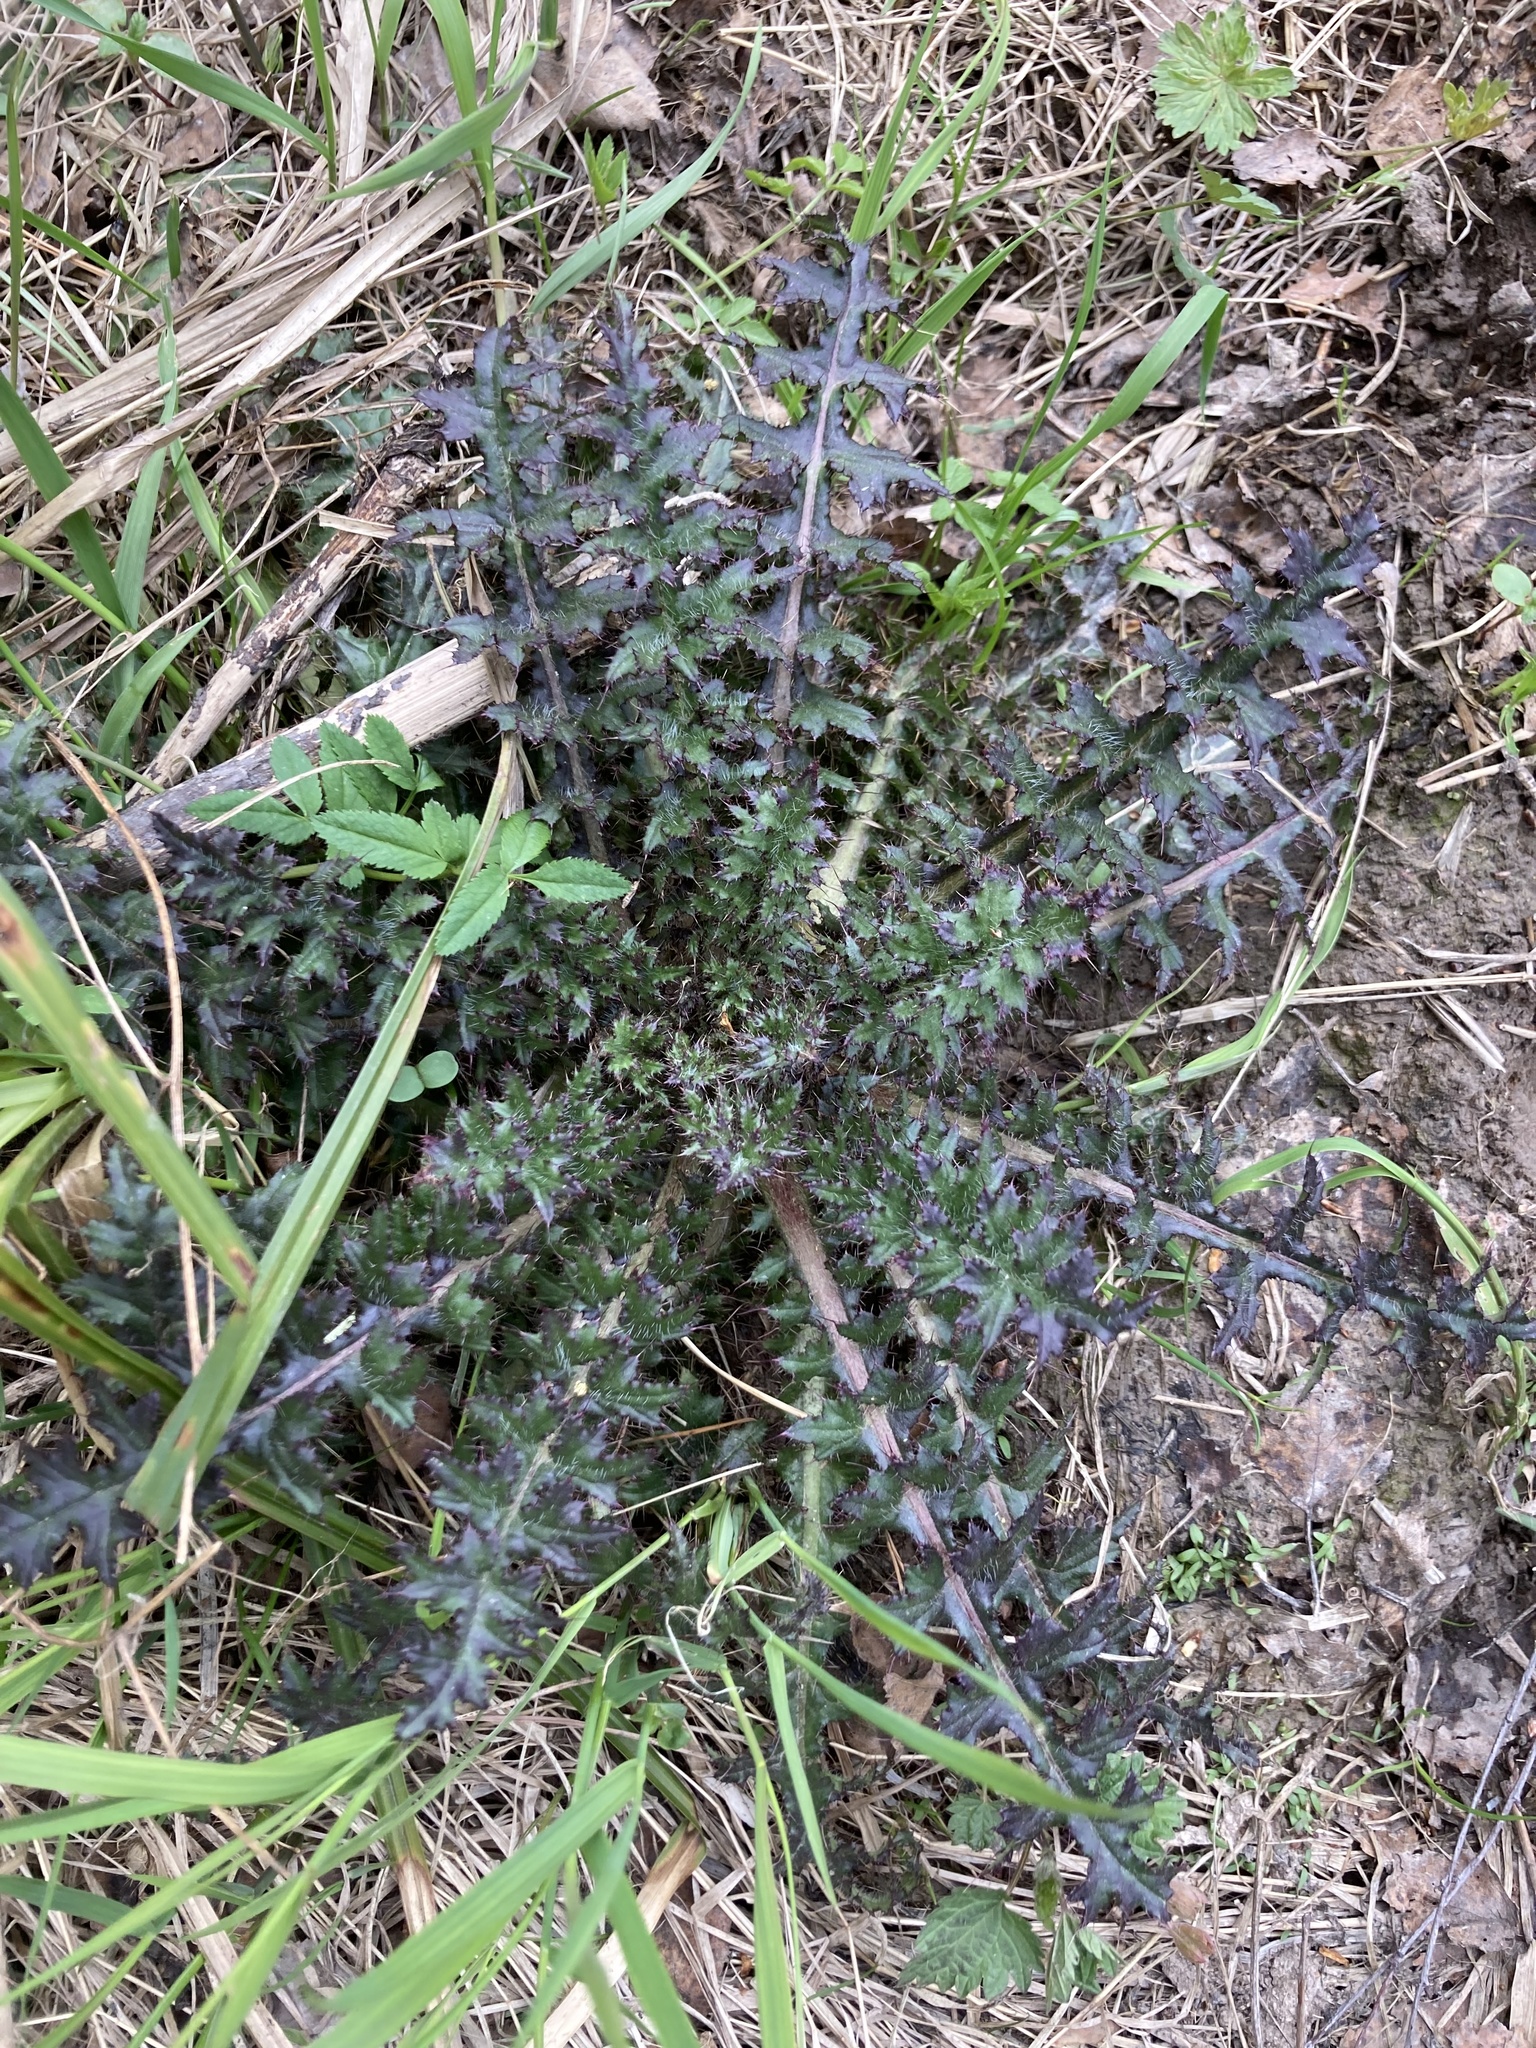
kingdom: Plantae
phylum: Tracheophyta
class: Magnoliopsida
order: Asterales
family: Asteraceae
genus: Cirsium
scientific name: Cirsium palustre
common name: Marsh thistle
